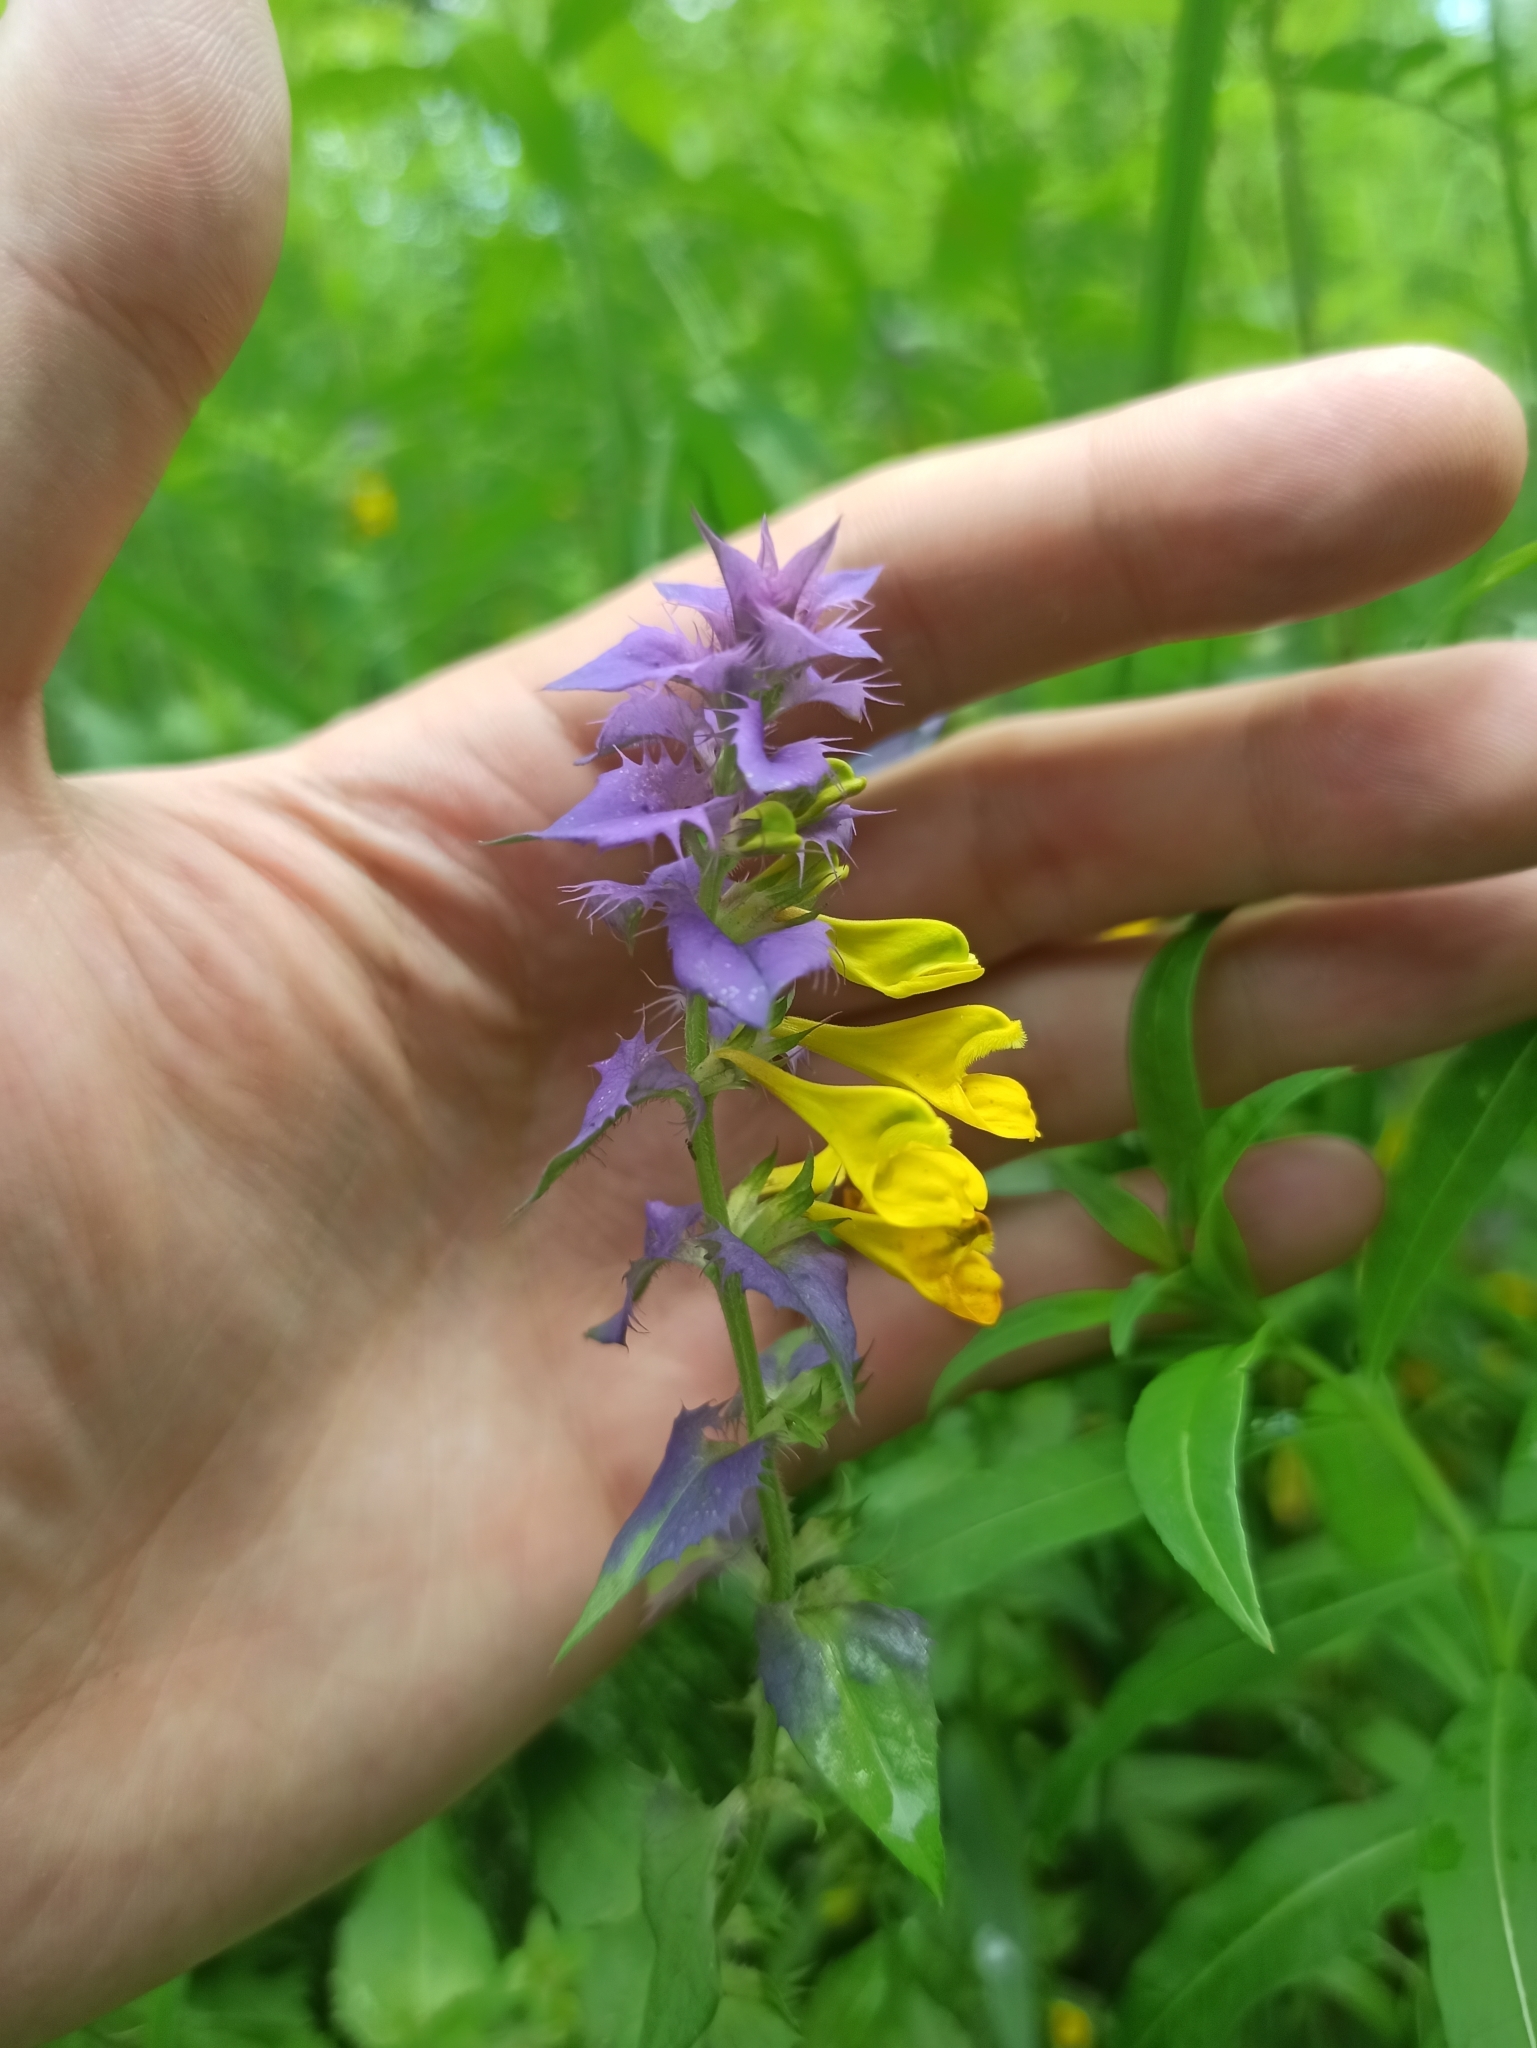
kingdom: Plantae
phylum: Tracheophyta
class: Magnoliopsida
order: Lamiales
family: Orobanchaceae
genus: Melampyrum
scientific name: Melampyrum nemorosum
